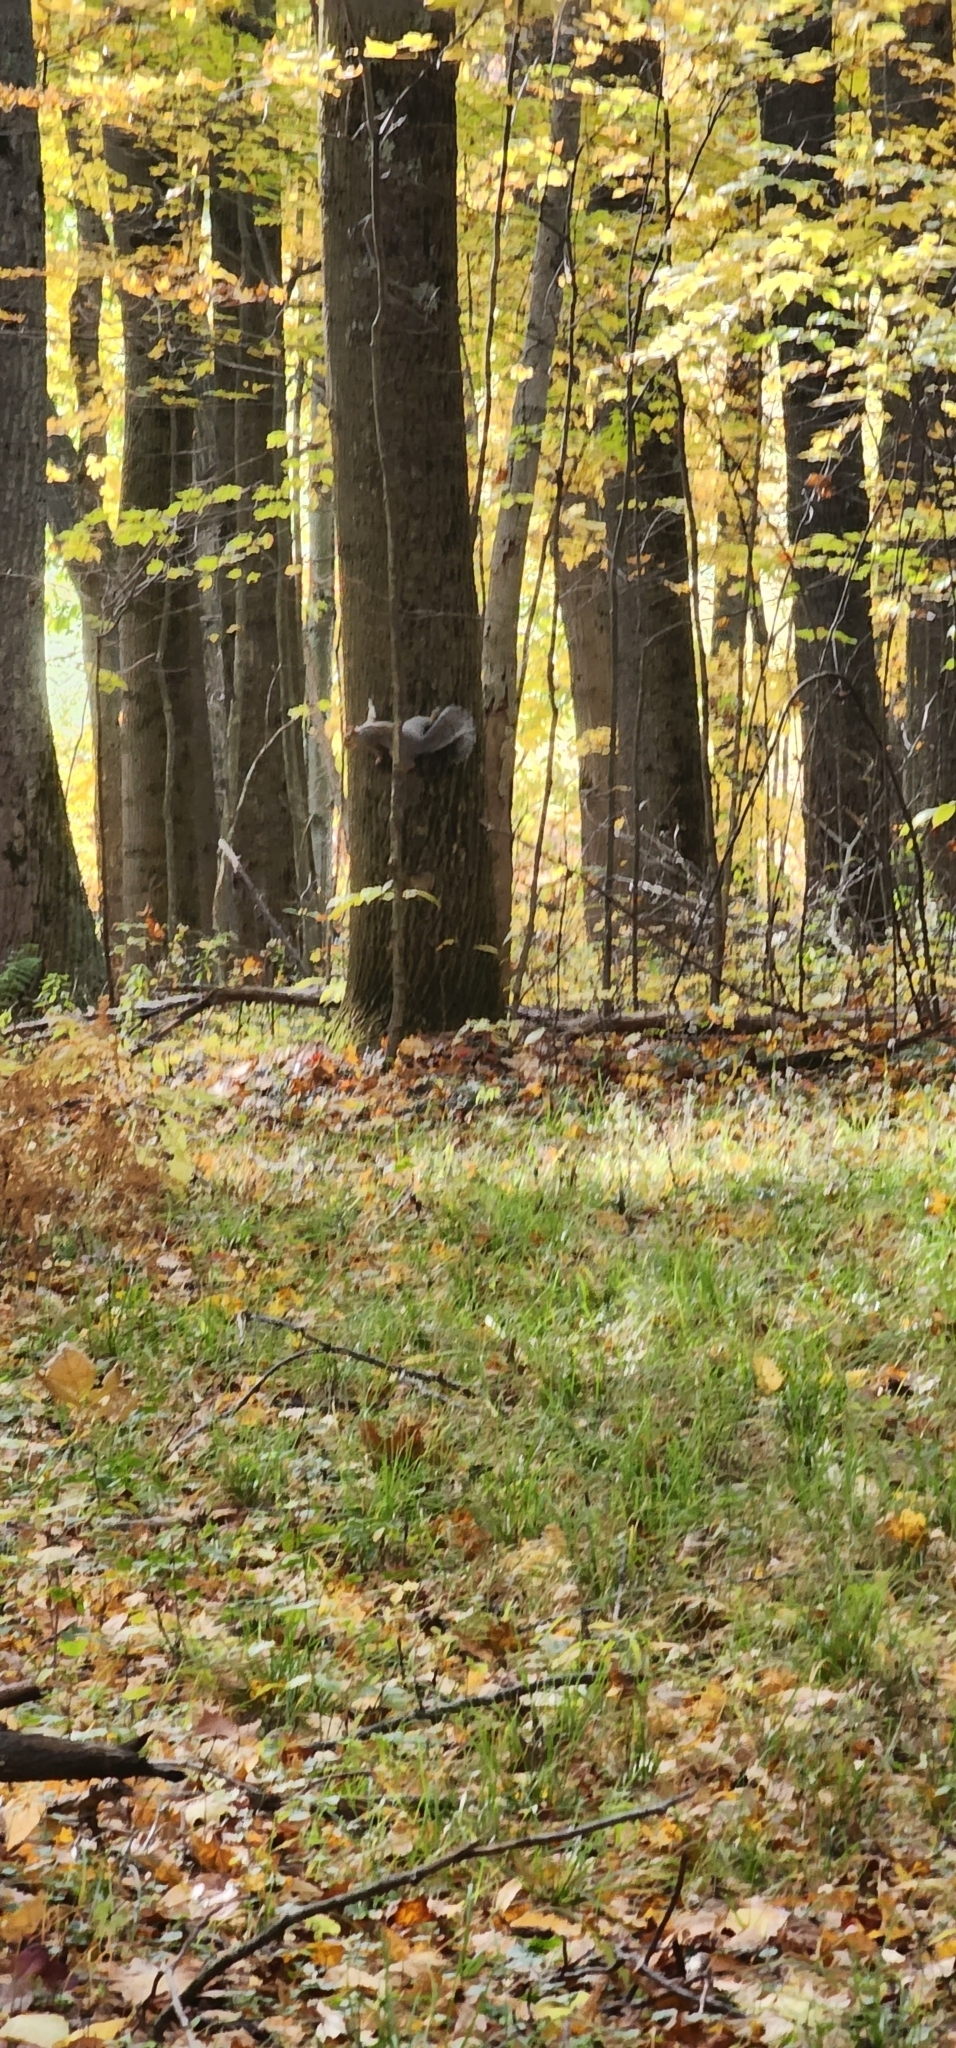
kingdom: Animalia
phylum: Chordata
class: Mammalia
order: Rodentia
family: Sciuridae
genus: Sciurus
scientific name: Sciurus carolinensis
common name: Eastern gray squirrel
